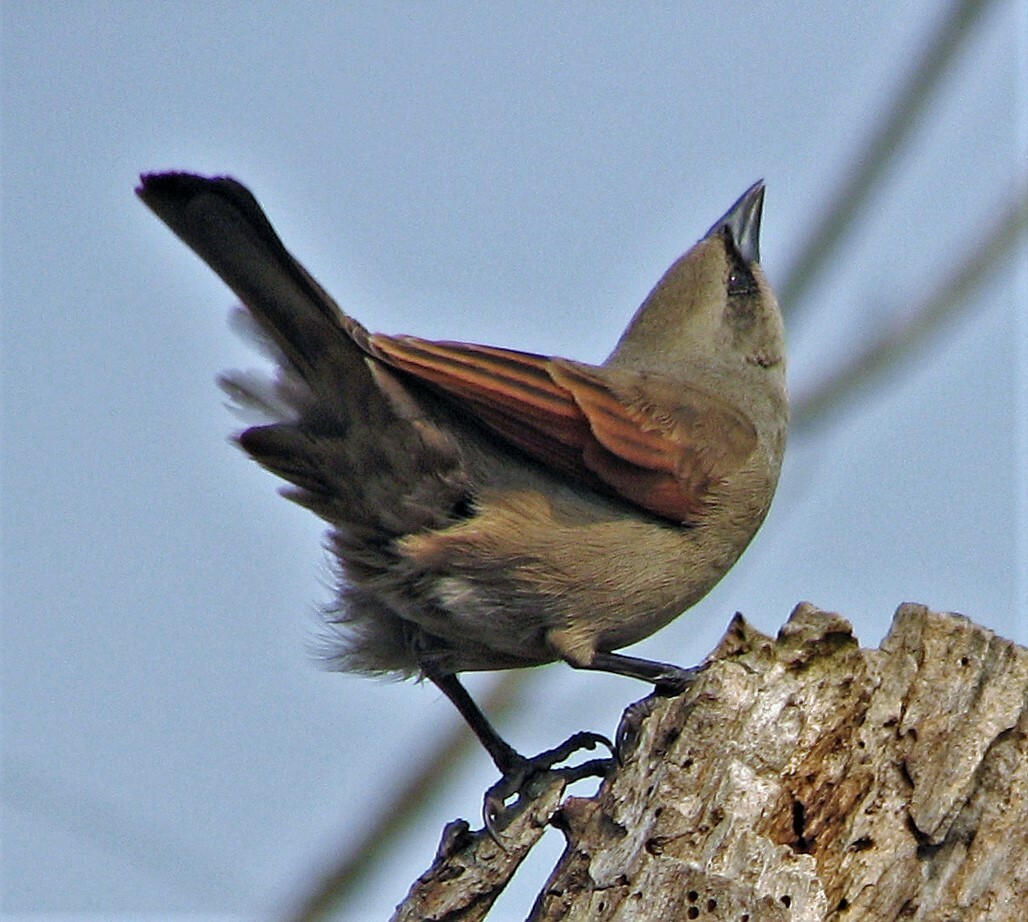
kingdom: Animalia
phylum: Chordata
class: Aves
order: Passeriformes
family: Icteridae
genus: Agelaioides
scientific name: Agelaioides badius
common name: Baywing
